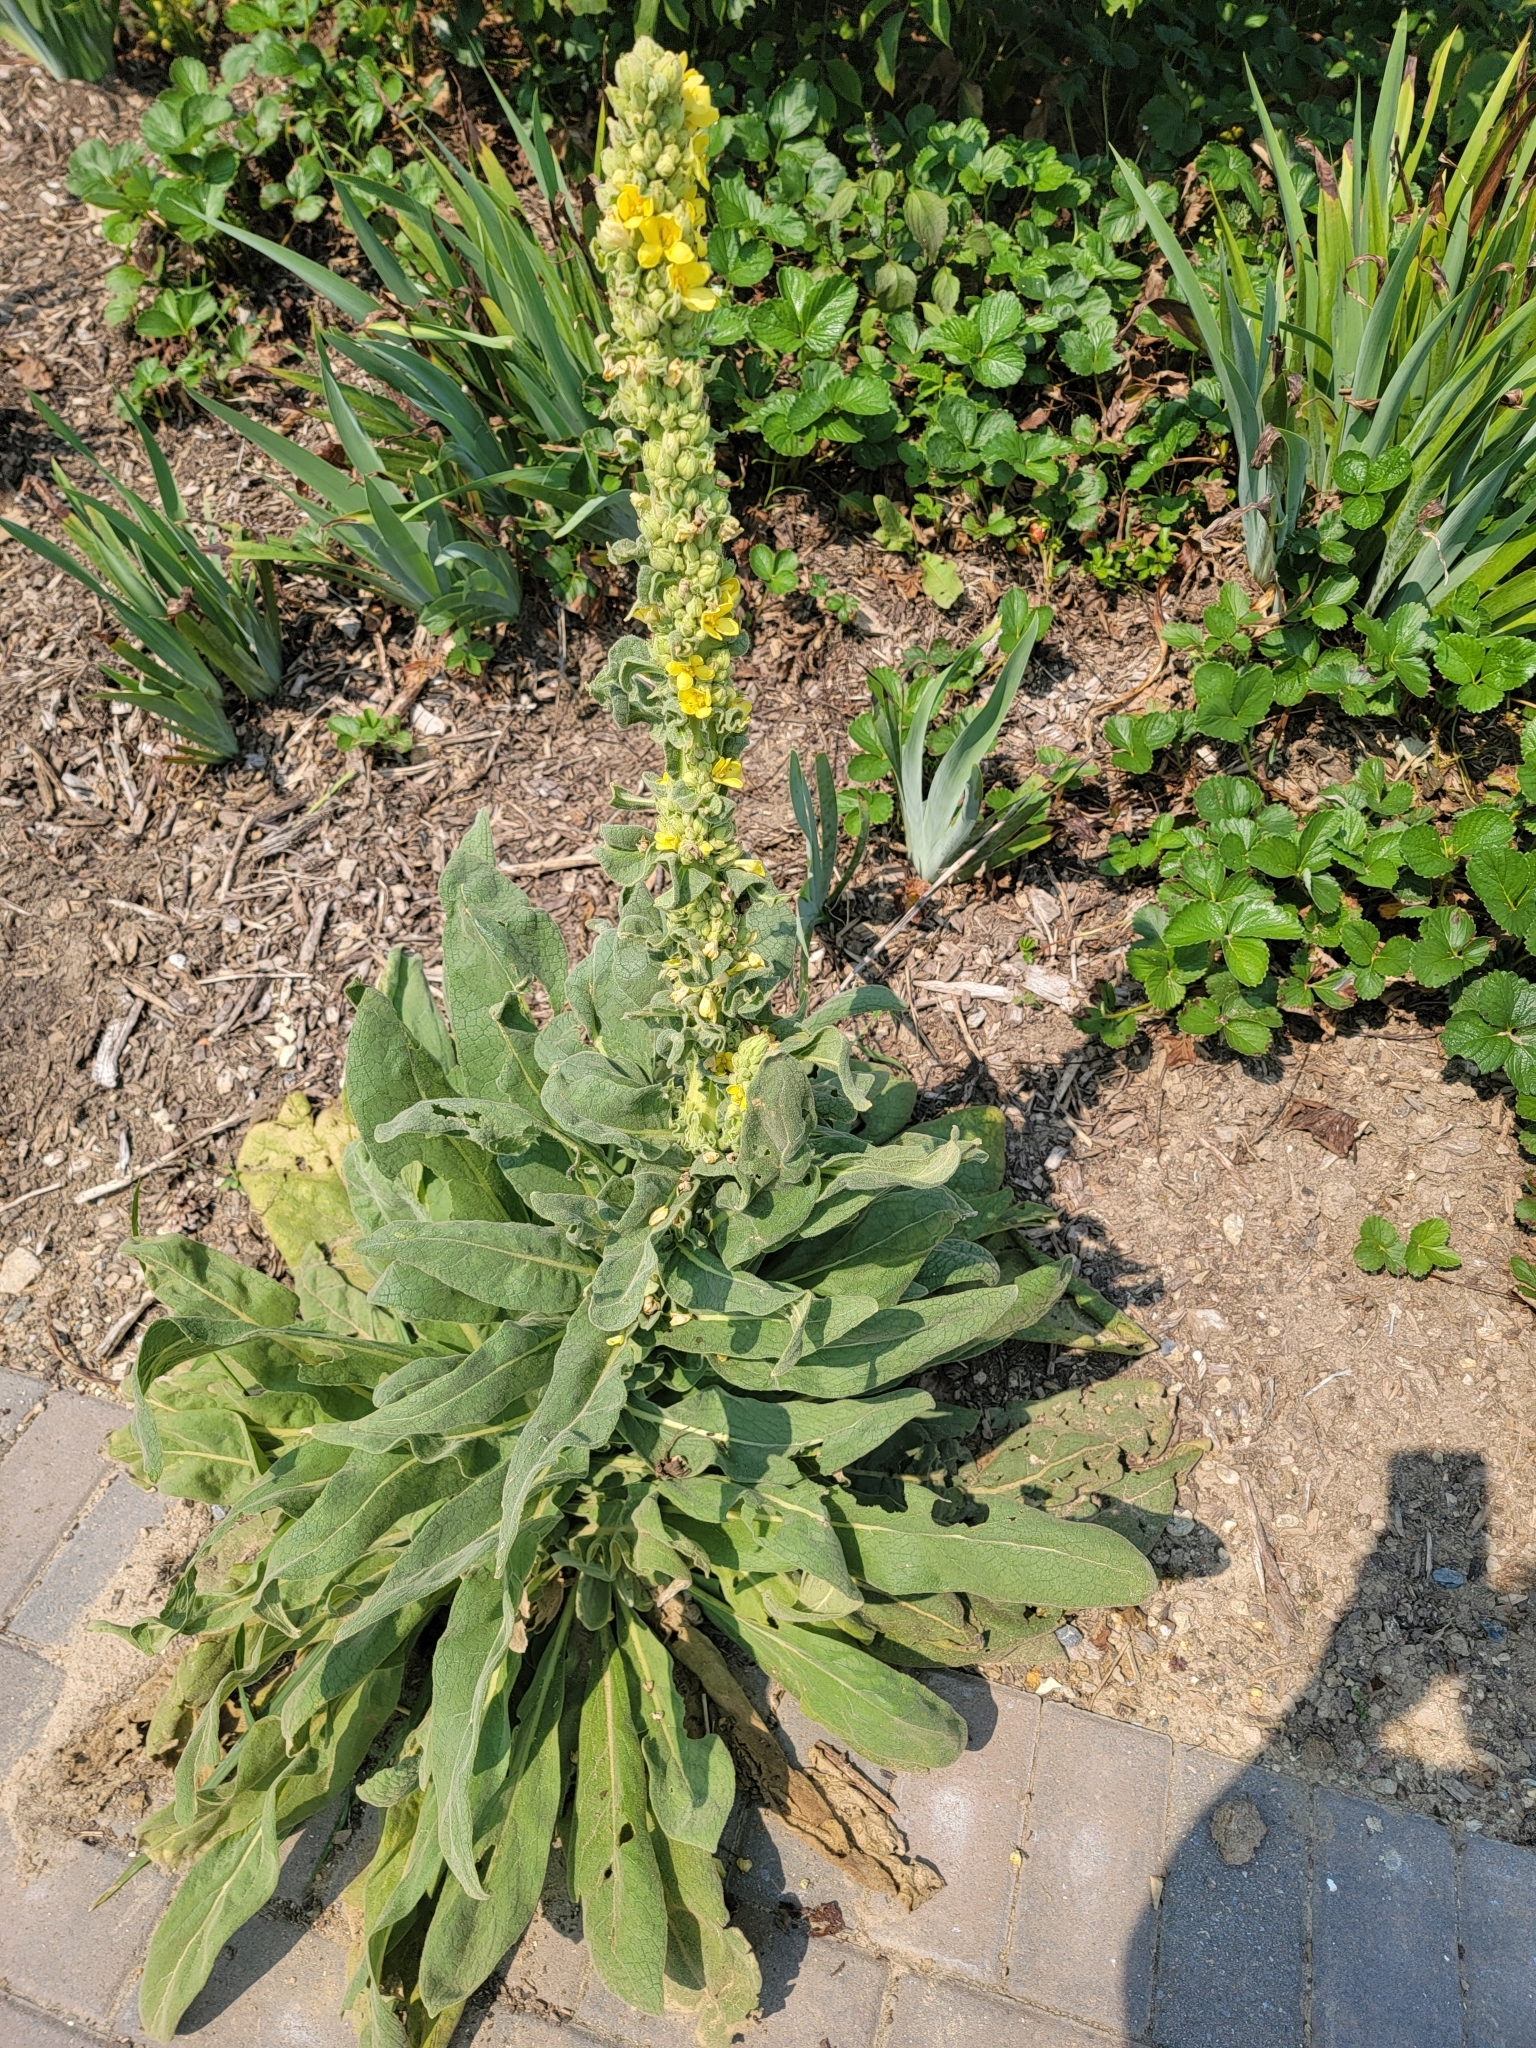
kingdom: Plantae
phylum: Tracheophyta
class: Magnoliopsida
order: Lamiales
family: Scrophulariaceae
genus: Verbascum
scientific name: Verbascum thapsus
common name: Common mullein
